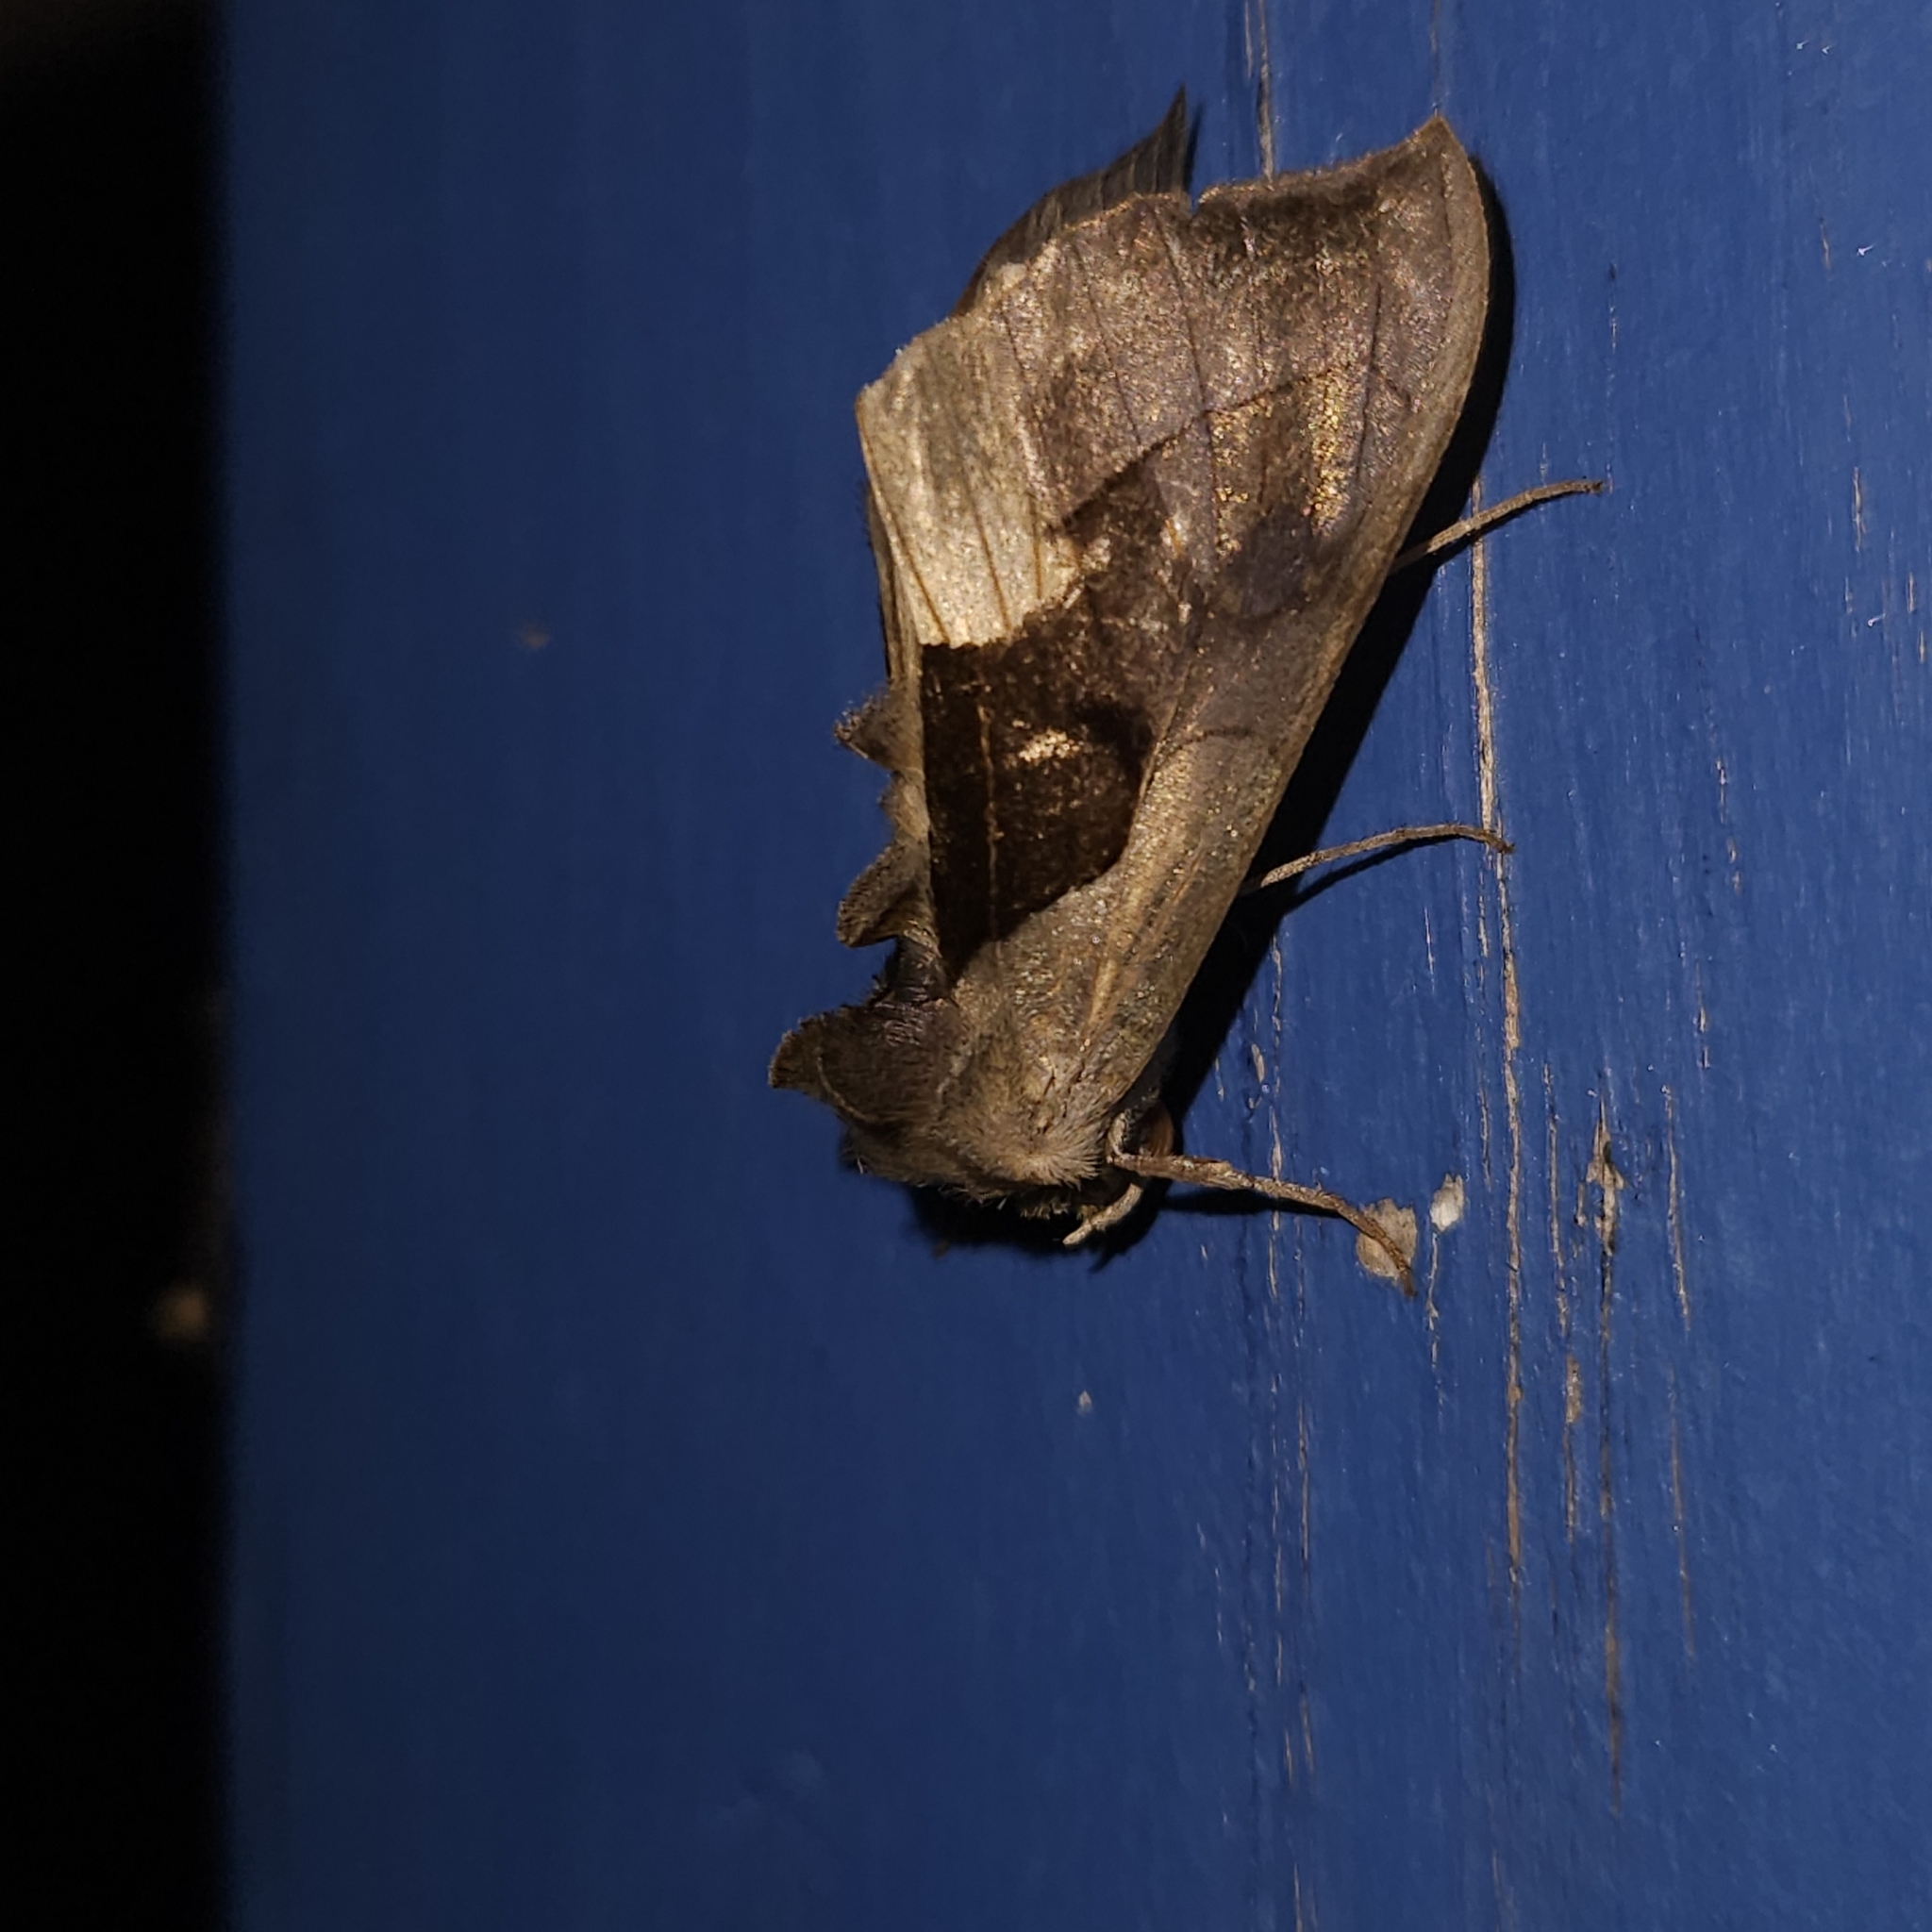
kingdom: Animalia
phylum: Arthropoda
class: Insecta
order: Lepidoptera
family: Noctuidae
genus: Diachrysia
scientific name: Diachrysia balluca
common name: Green-patched looper moth
